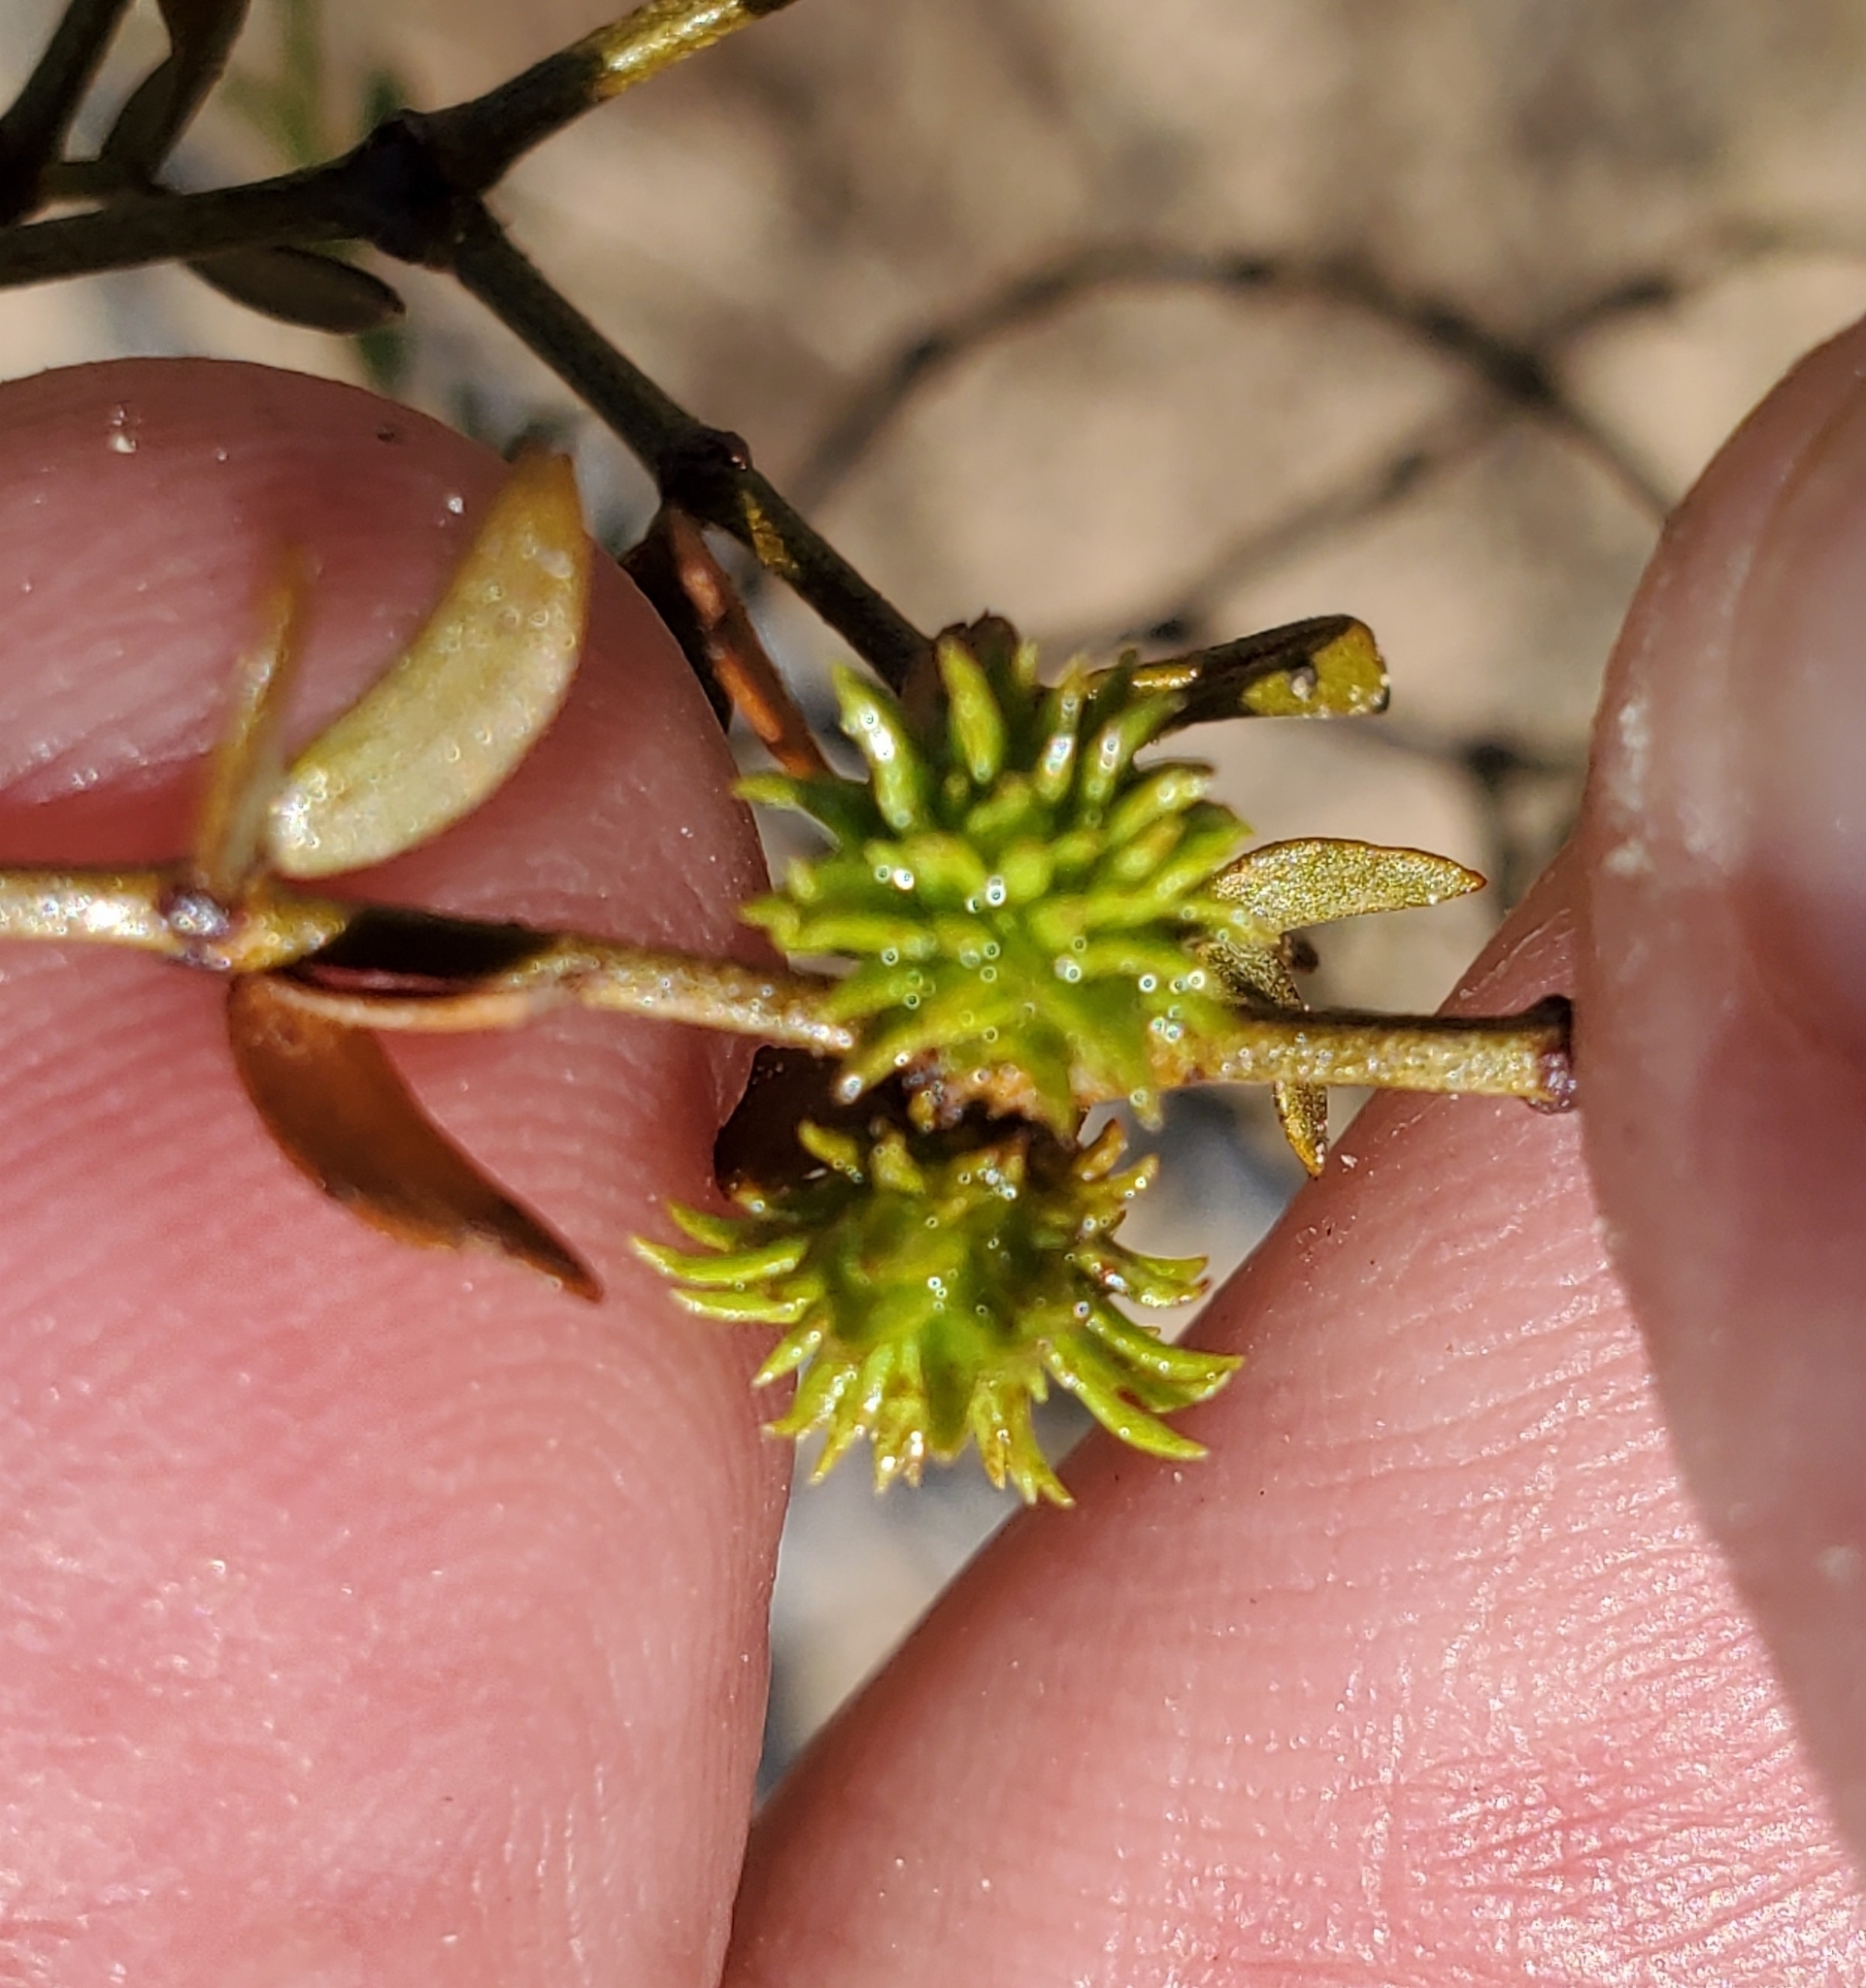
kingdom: Animalia
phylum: Arthropoda
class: Insecta
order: Diptera
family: Cecidomyiidae
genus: Asphondylia
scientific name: Asphondylia rosetta
